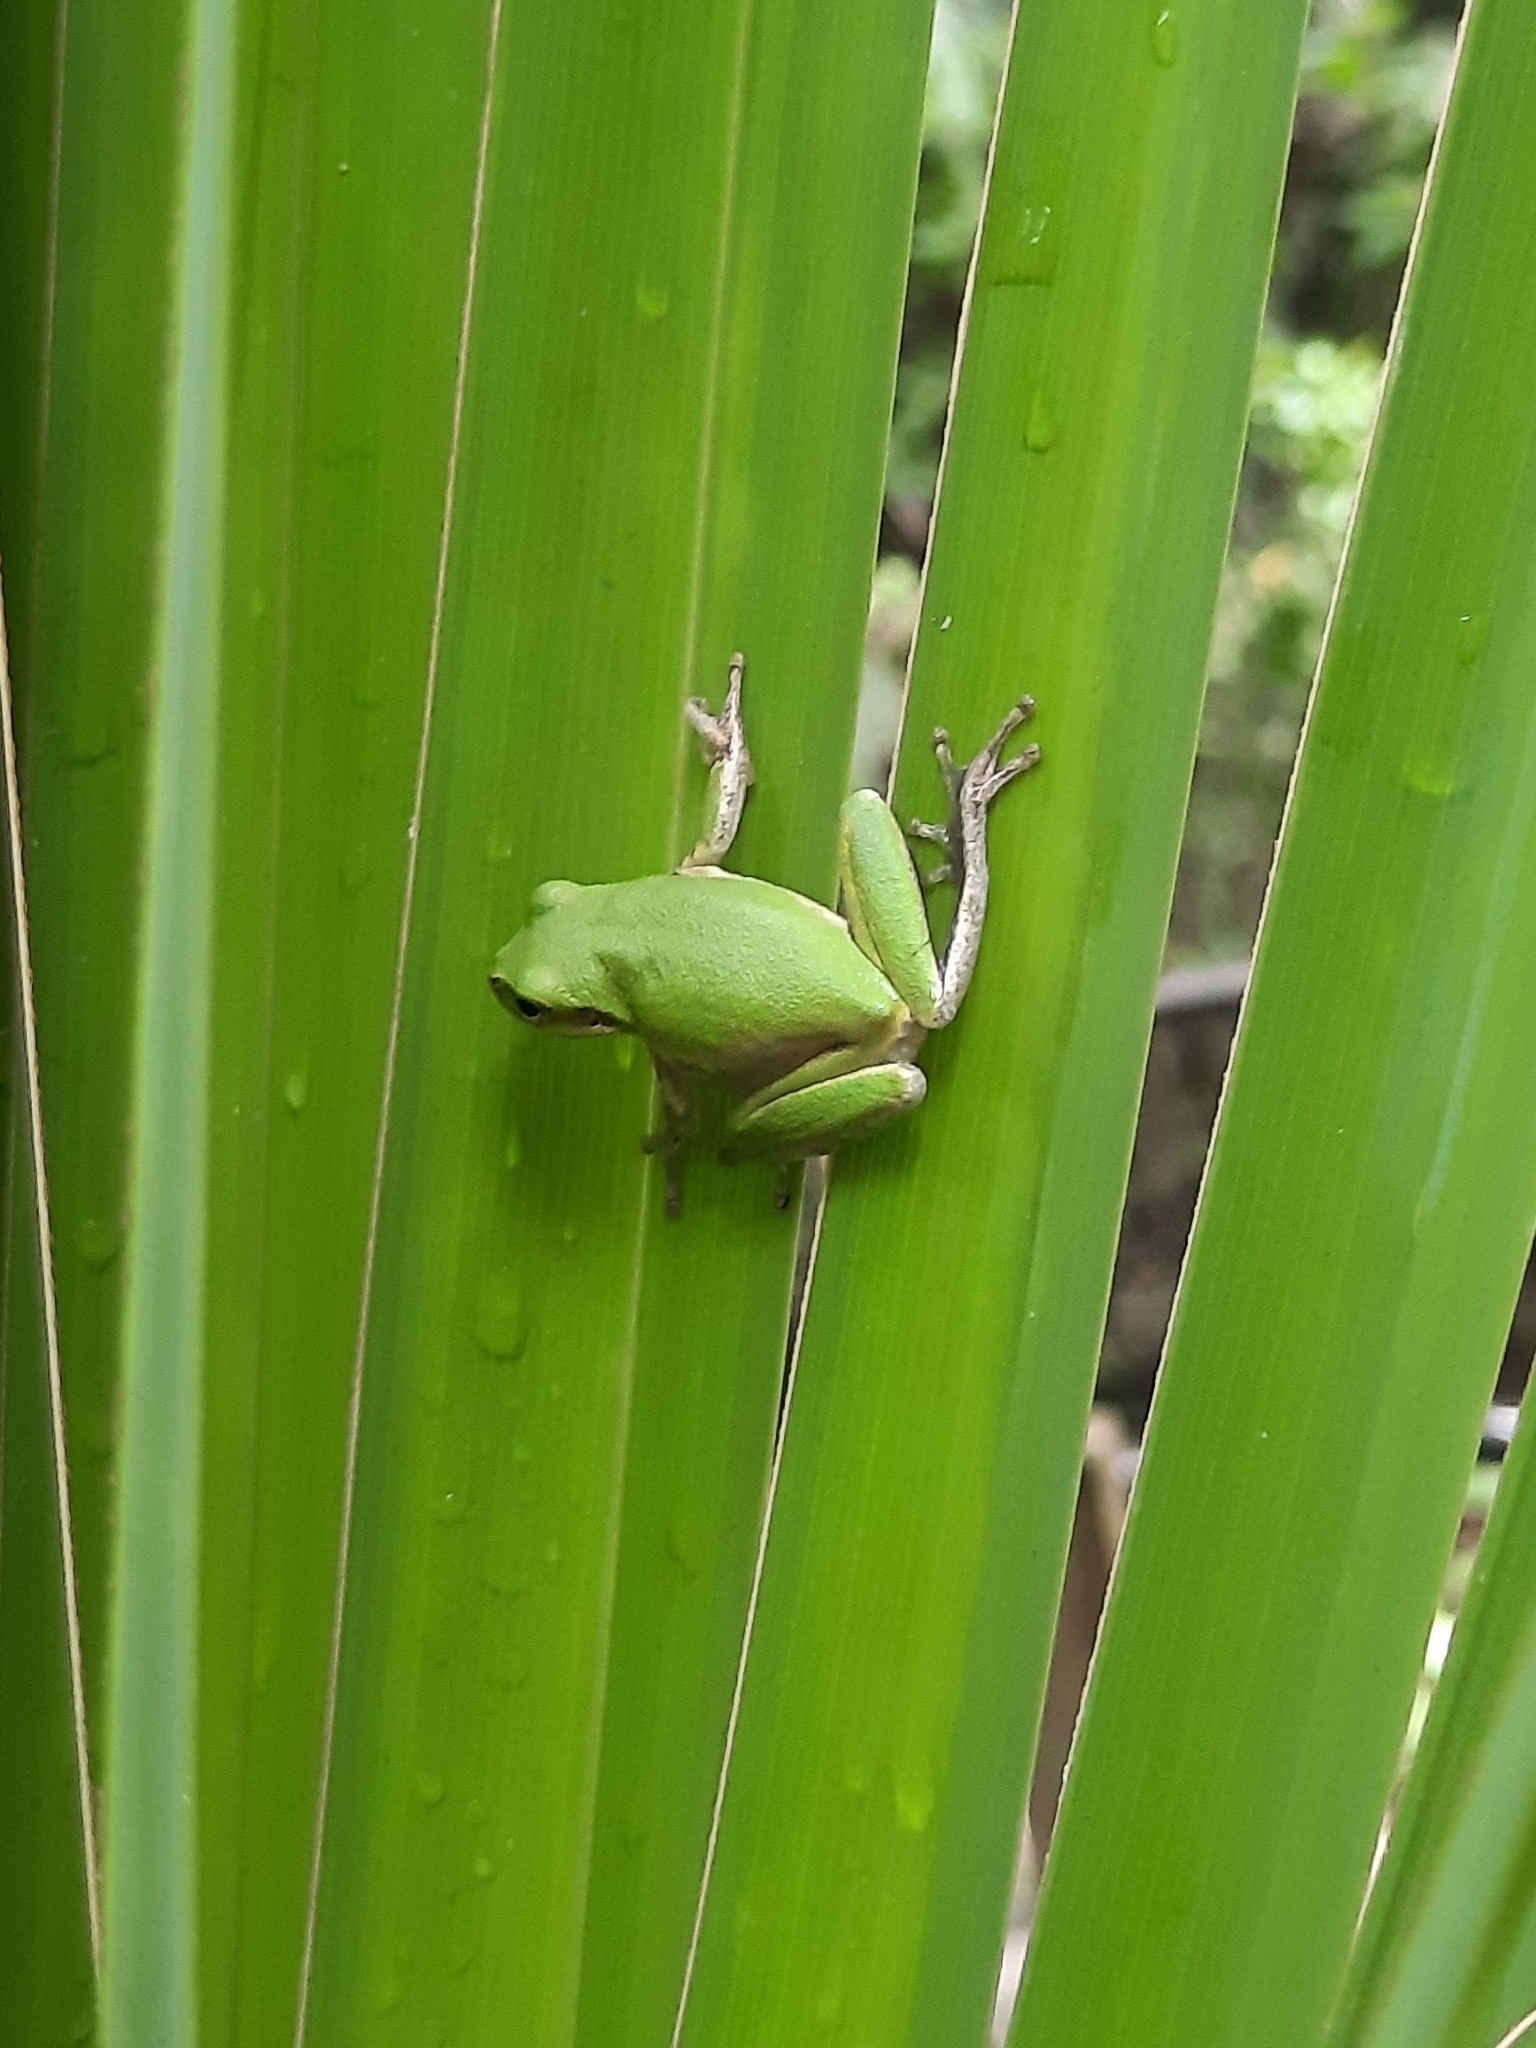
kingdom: Animalia
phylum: Chordata
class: Amphibia
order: Anura
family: Hylidae
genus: Dryophytes
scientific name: Dryophytes squirellus
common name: Squirrel treefrog
